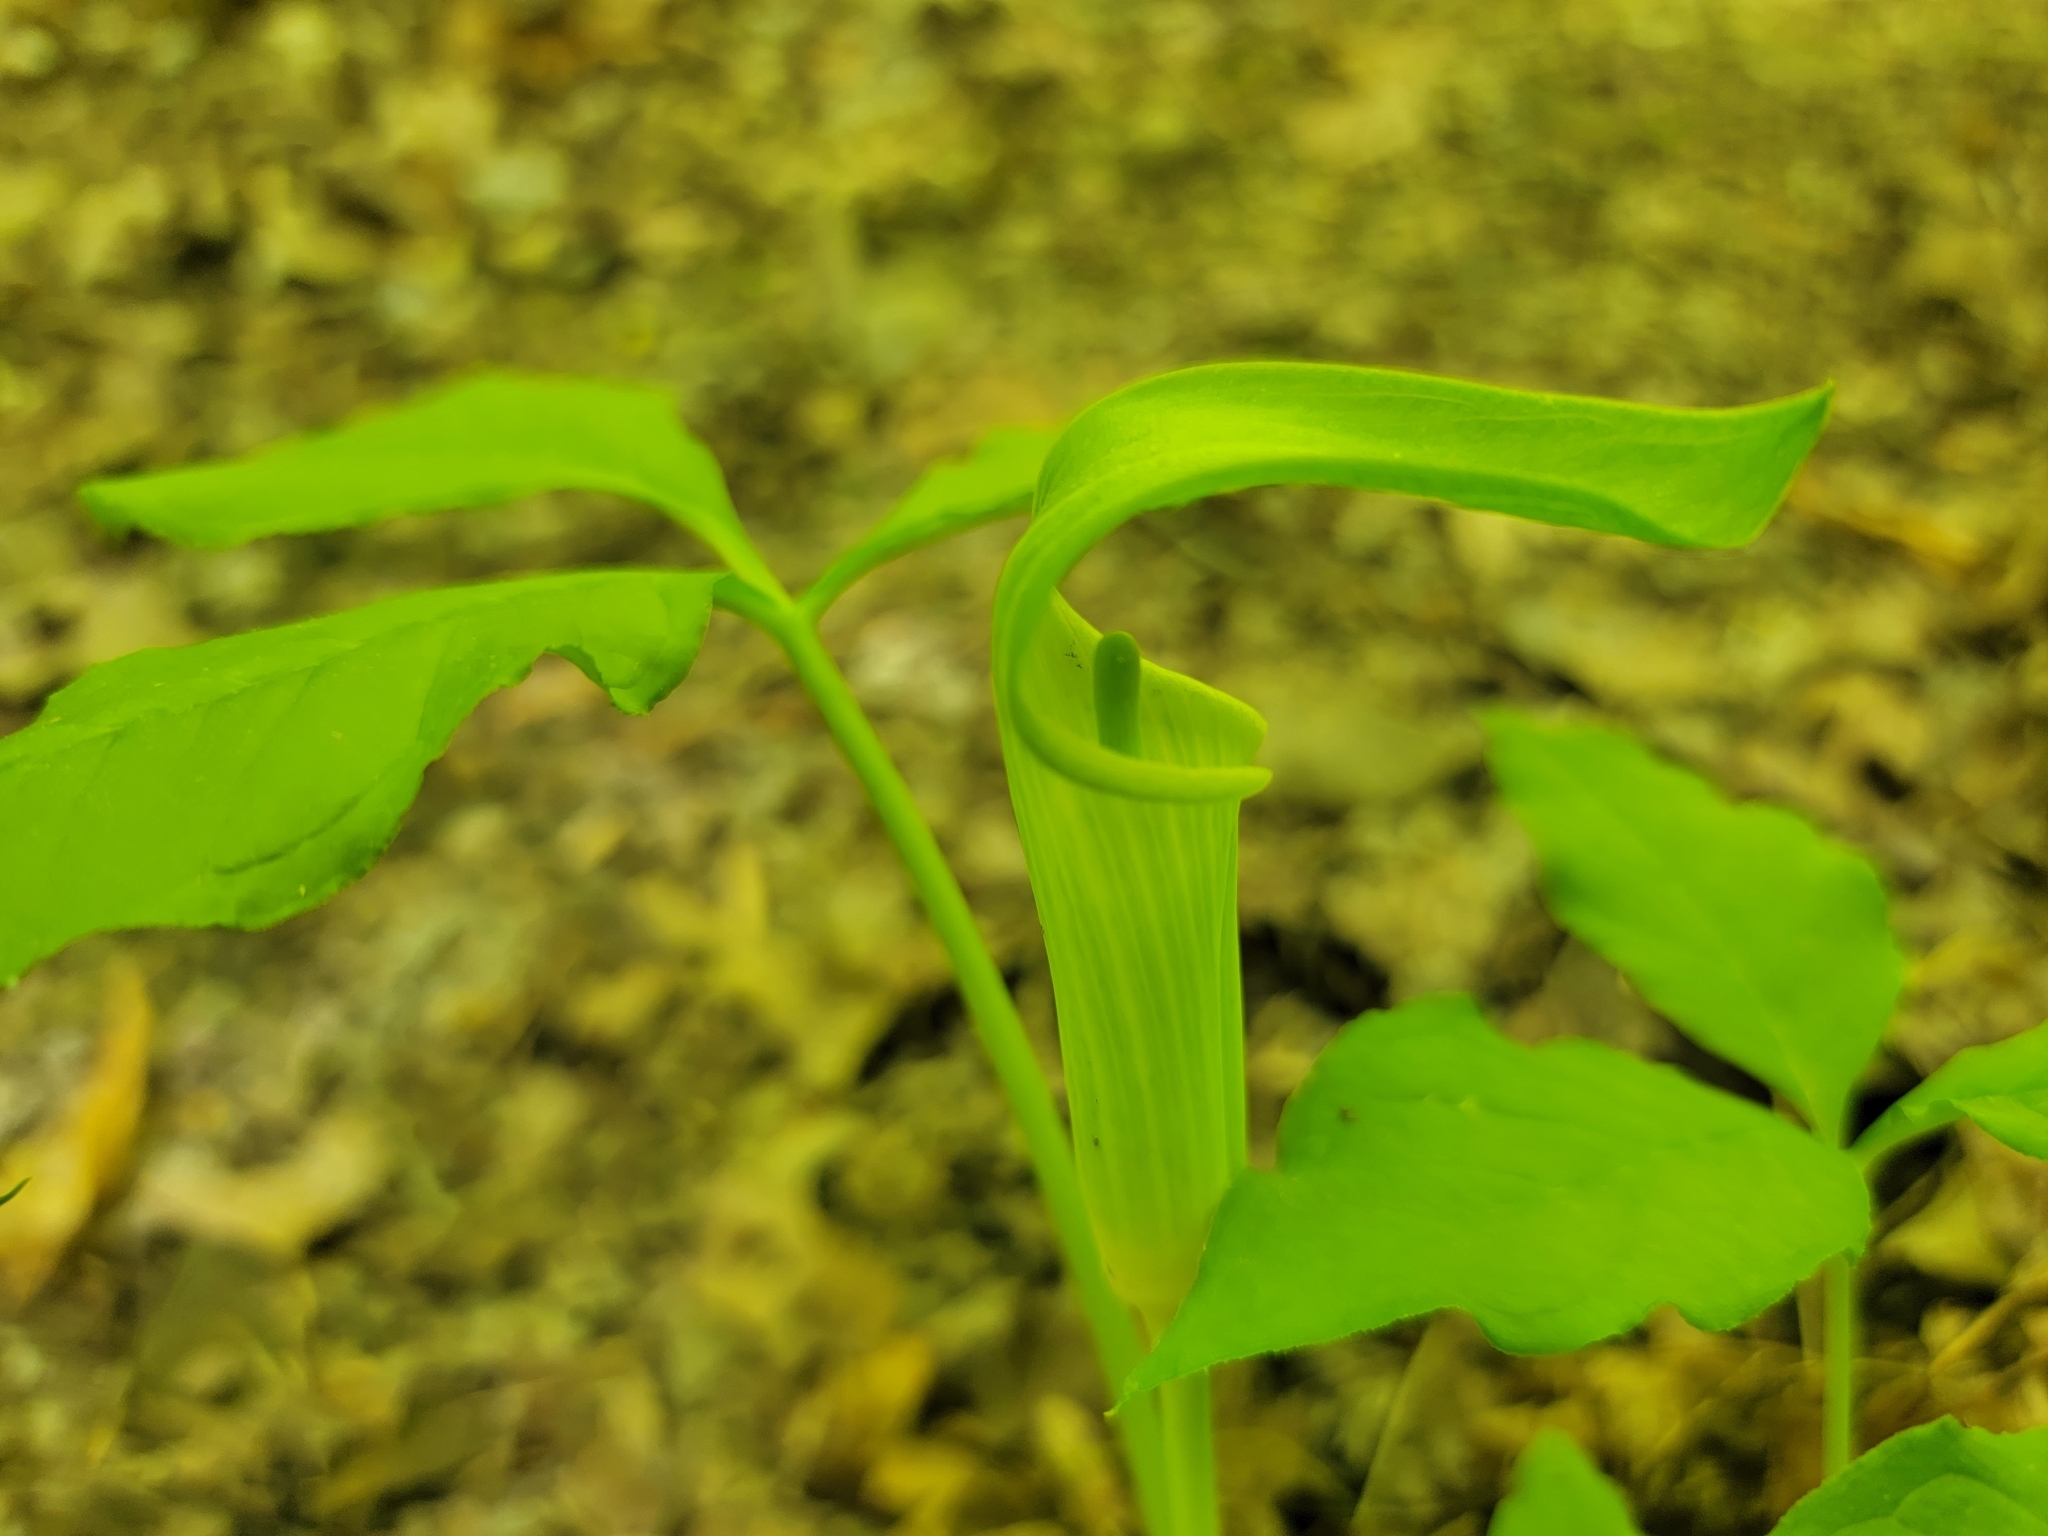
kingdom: Plantae
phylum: Tracheophyta
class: Liliopsida
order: Alismatales
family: Araceae
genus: Arisaema
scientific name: Arisaema triphyllum
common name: Jack-in-the-pulpit
